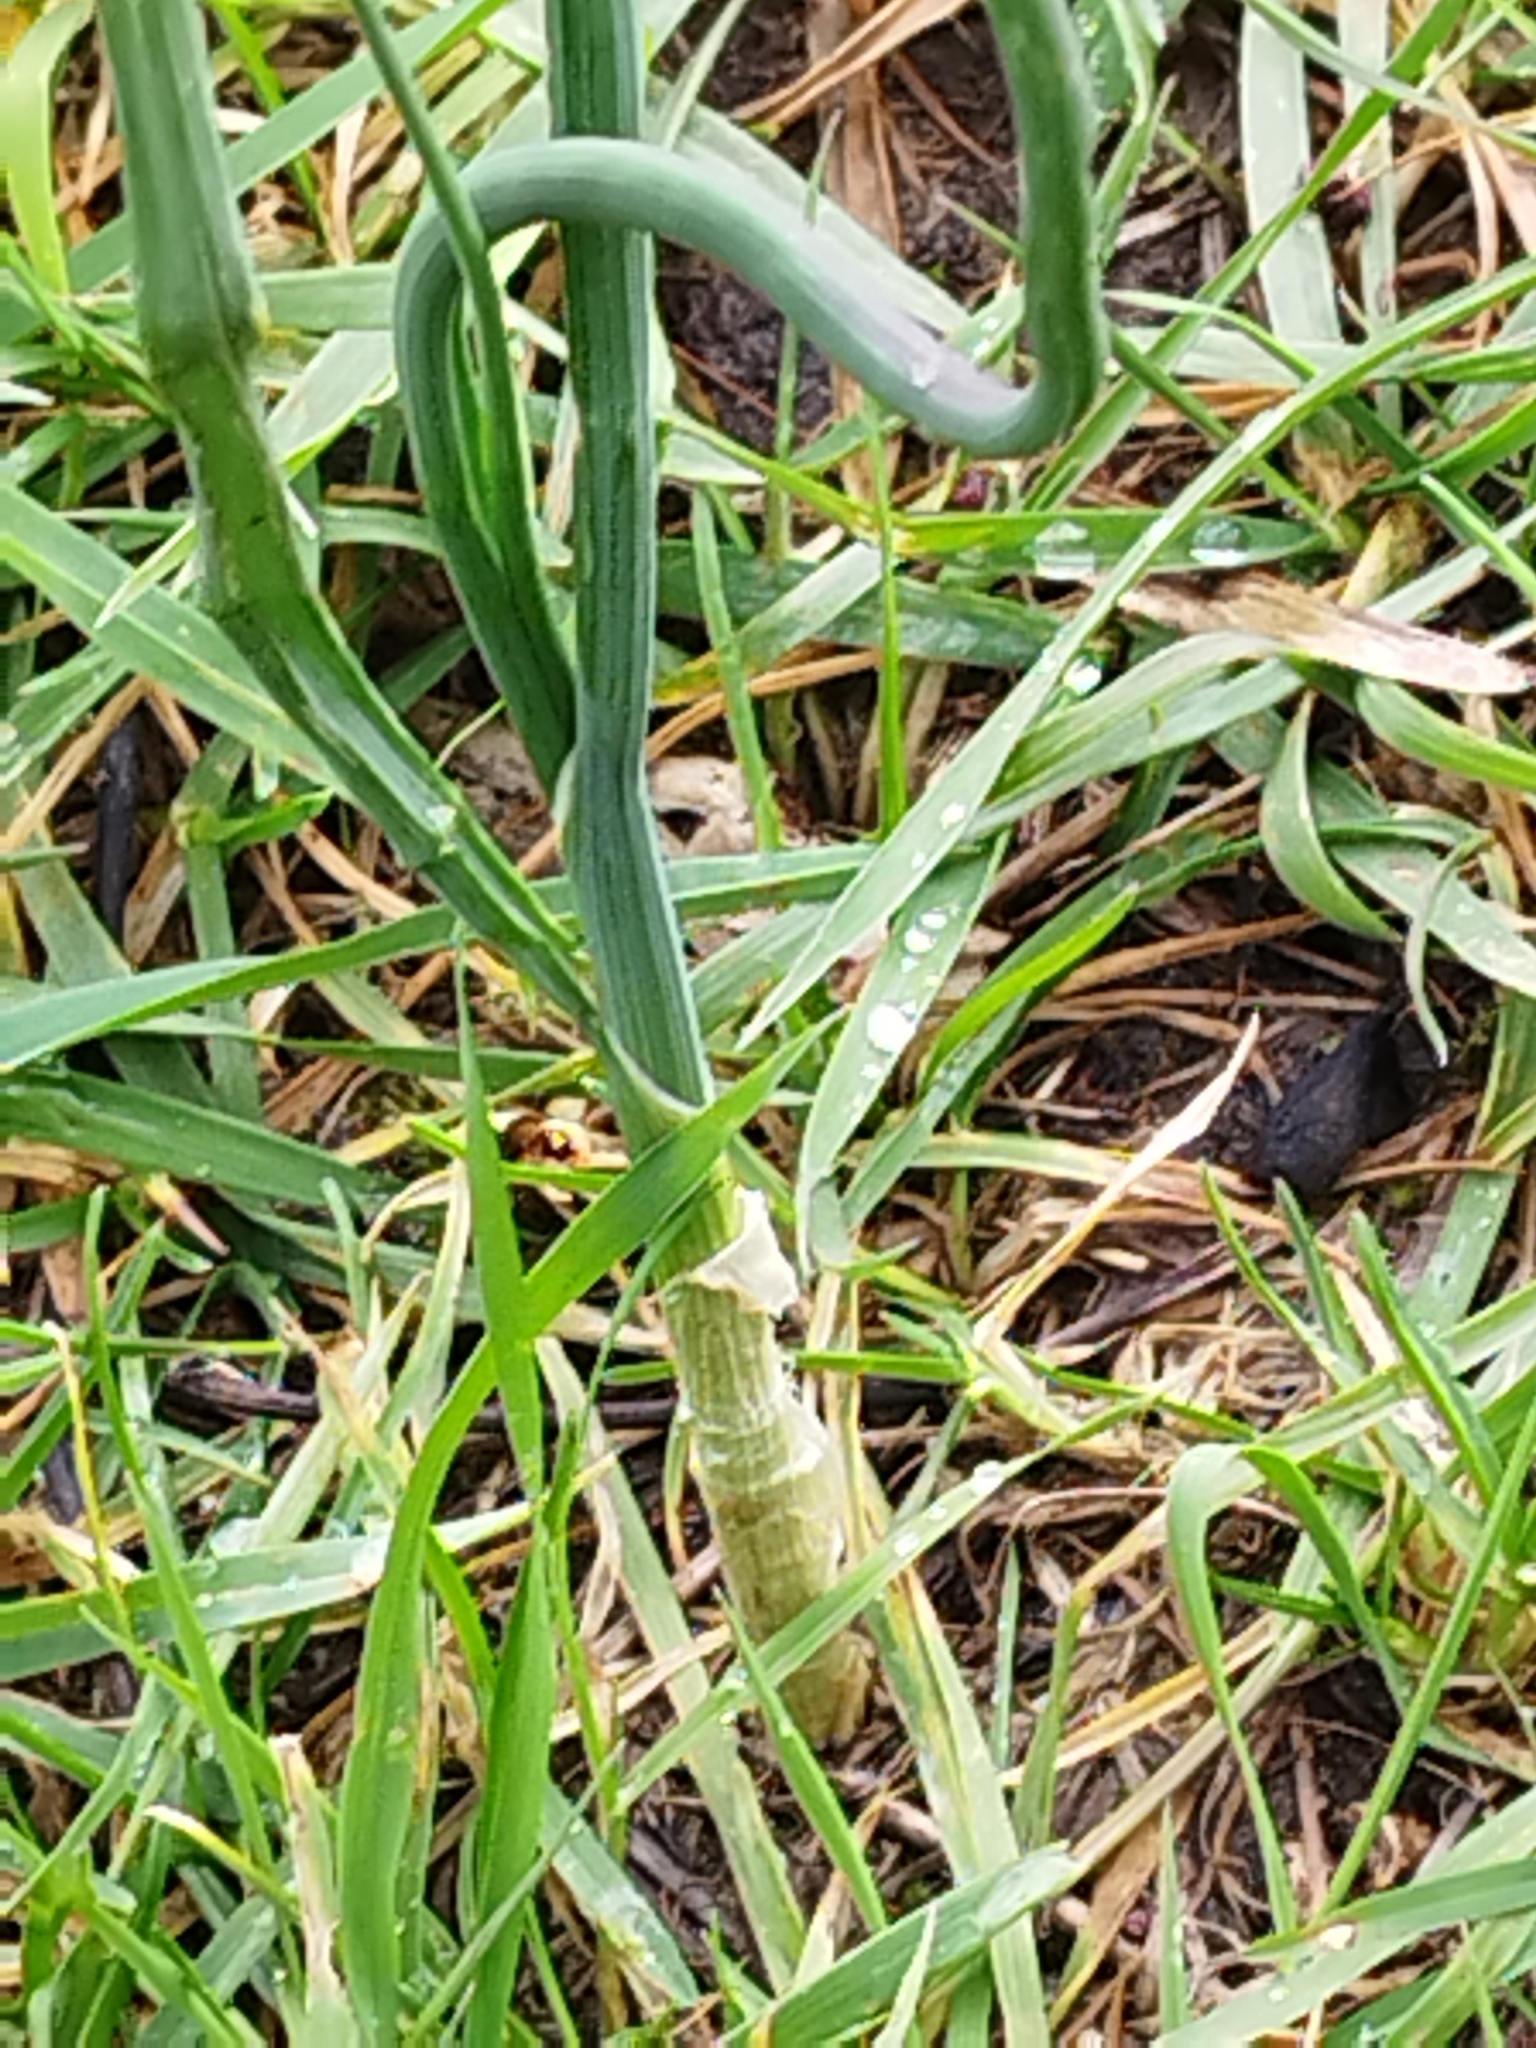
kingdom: Plantae
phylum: Tracheophyta
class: Liliopsida
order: Asparagales
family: Amaryllidaceae
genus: Allium
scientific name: Allium vineale
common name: Crow garlic
